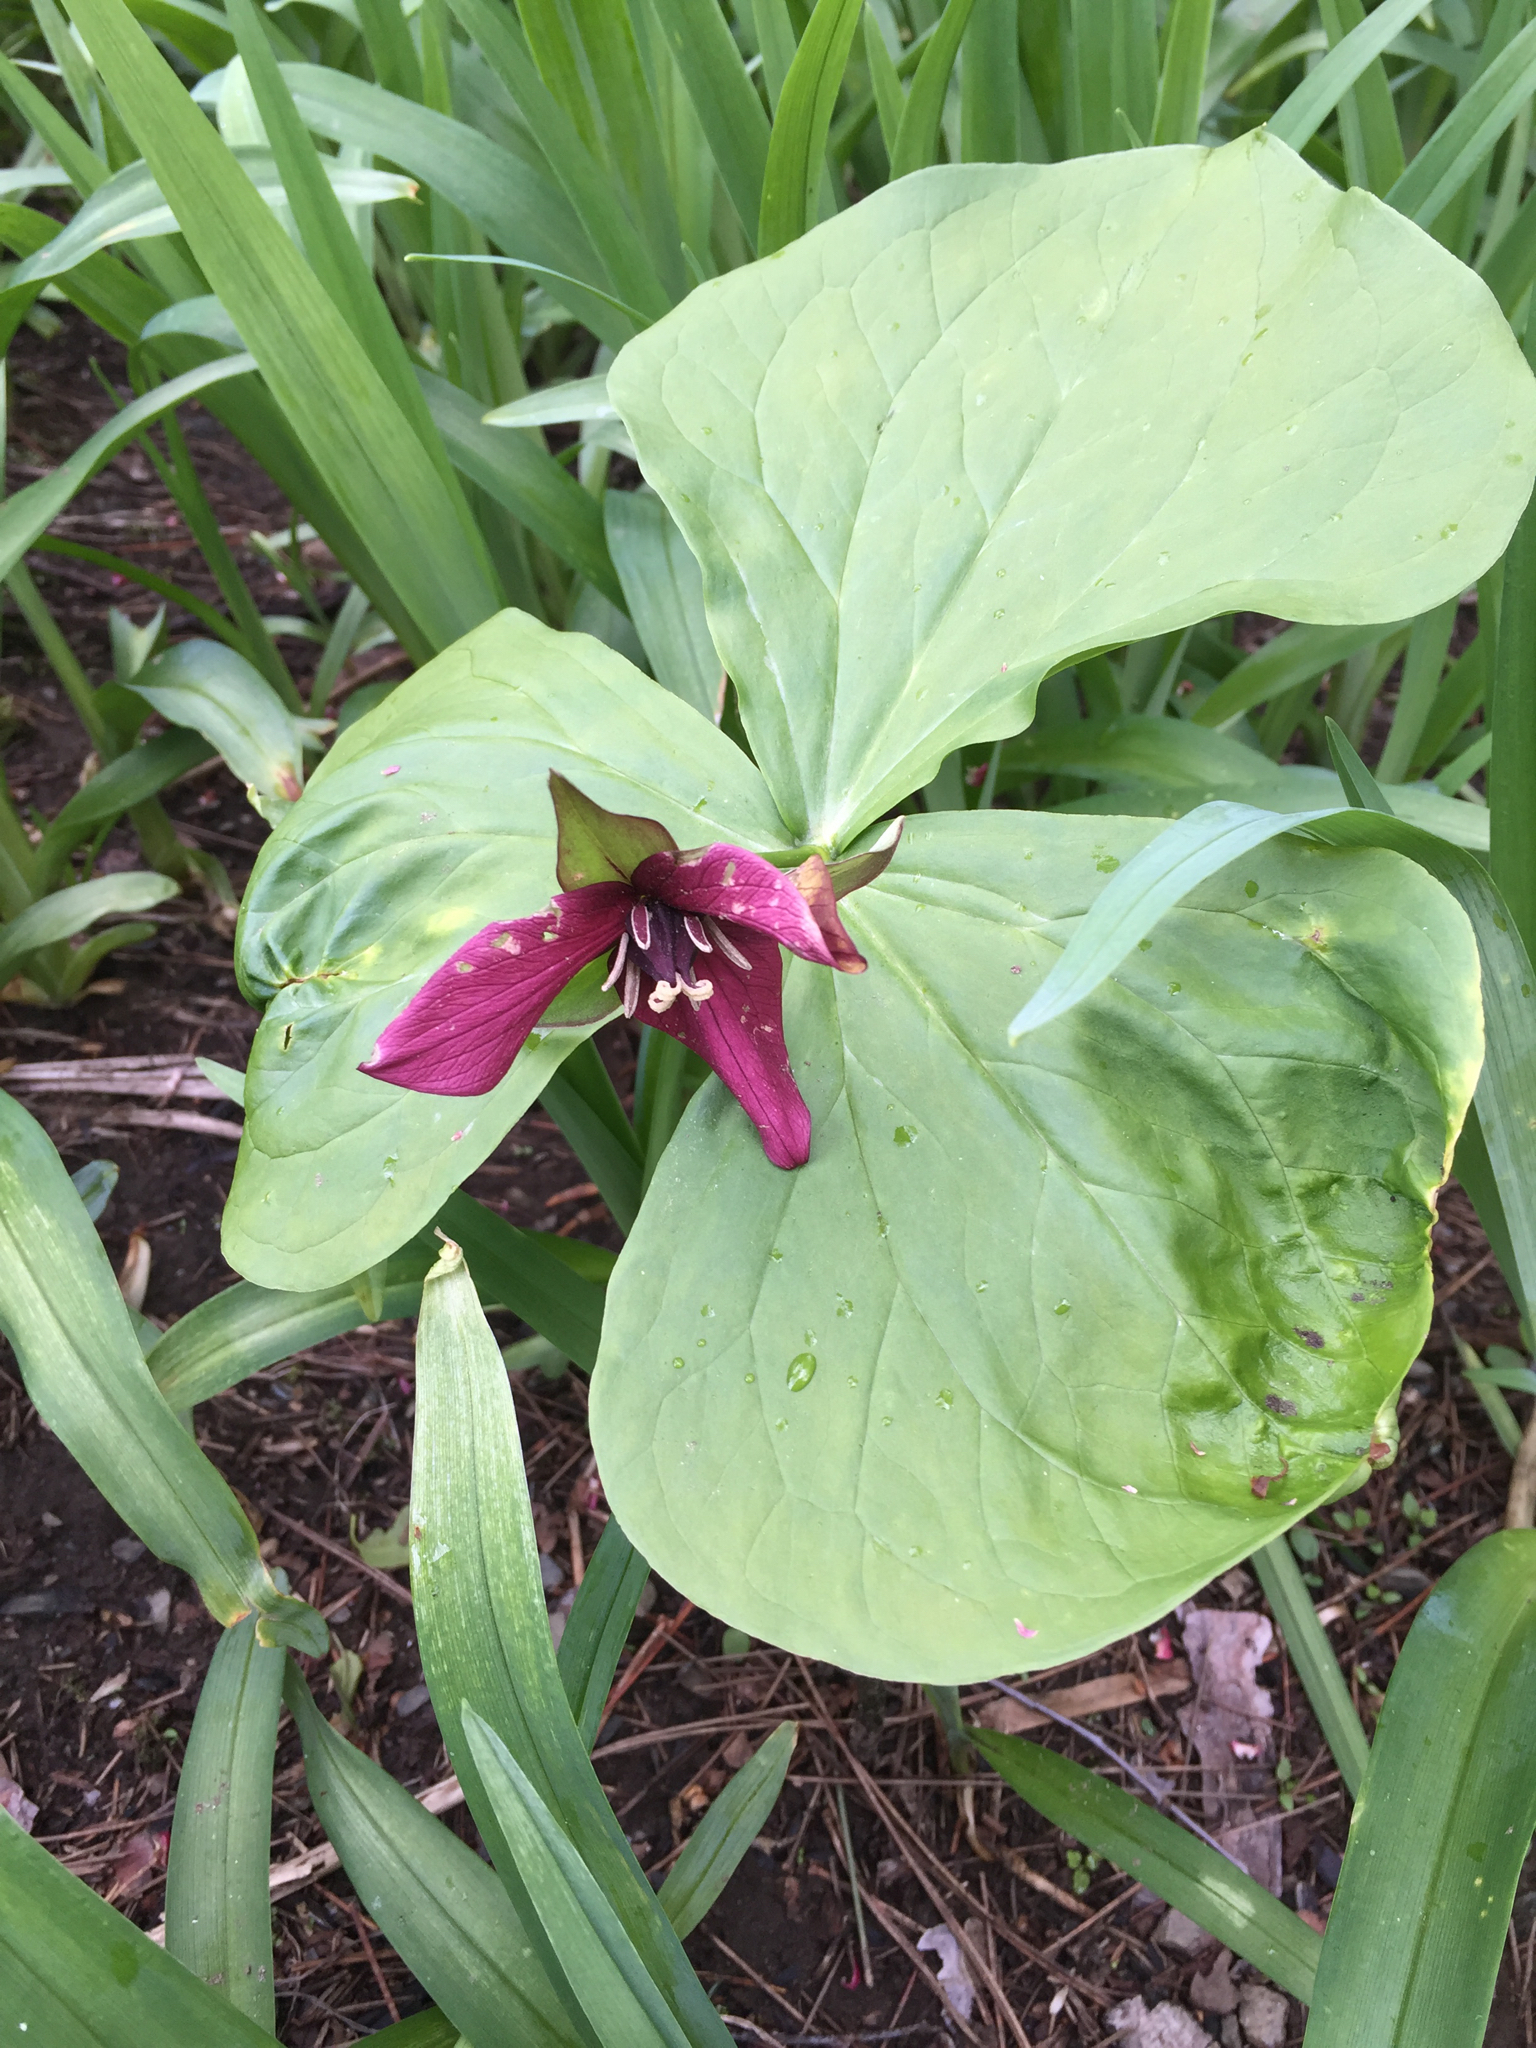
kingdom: Plantae
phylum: Tracheophyta
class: Liliopsida
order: Liliales
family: Melanthiaceae
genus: Trillium
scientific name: Trillium erectum
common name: Purple trillium
